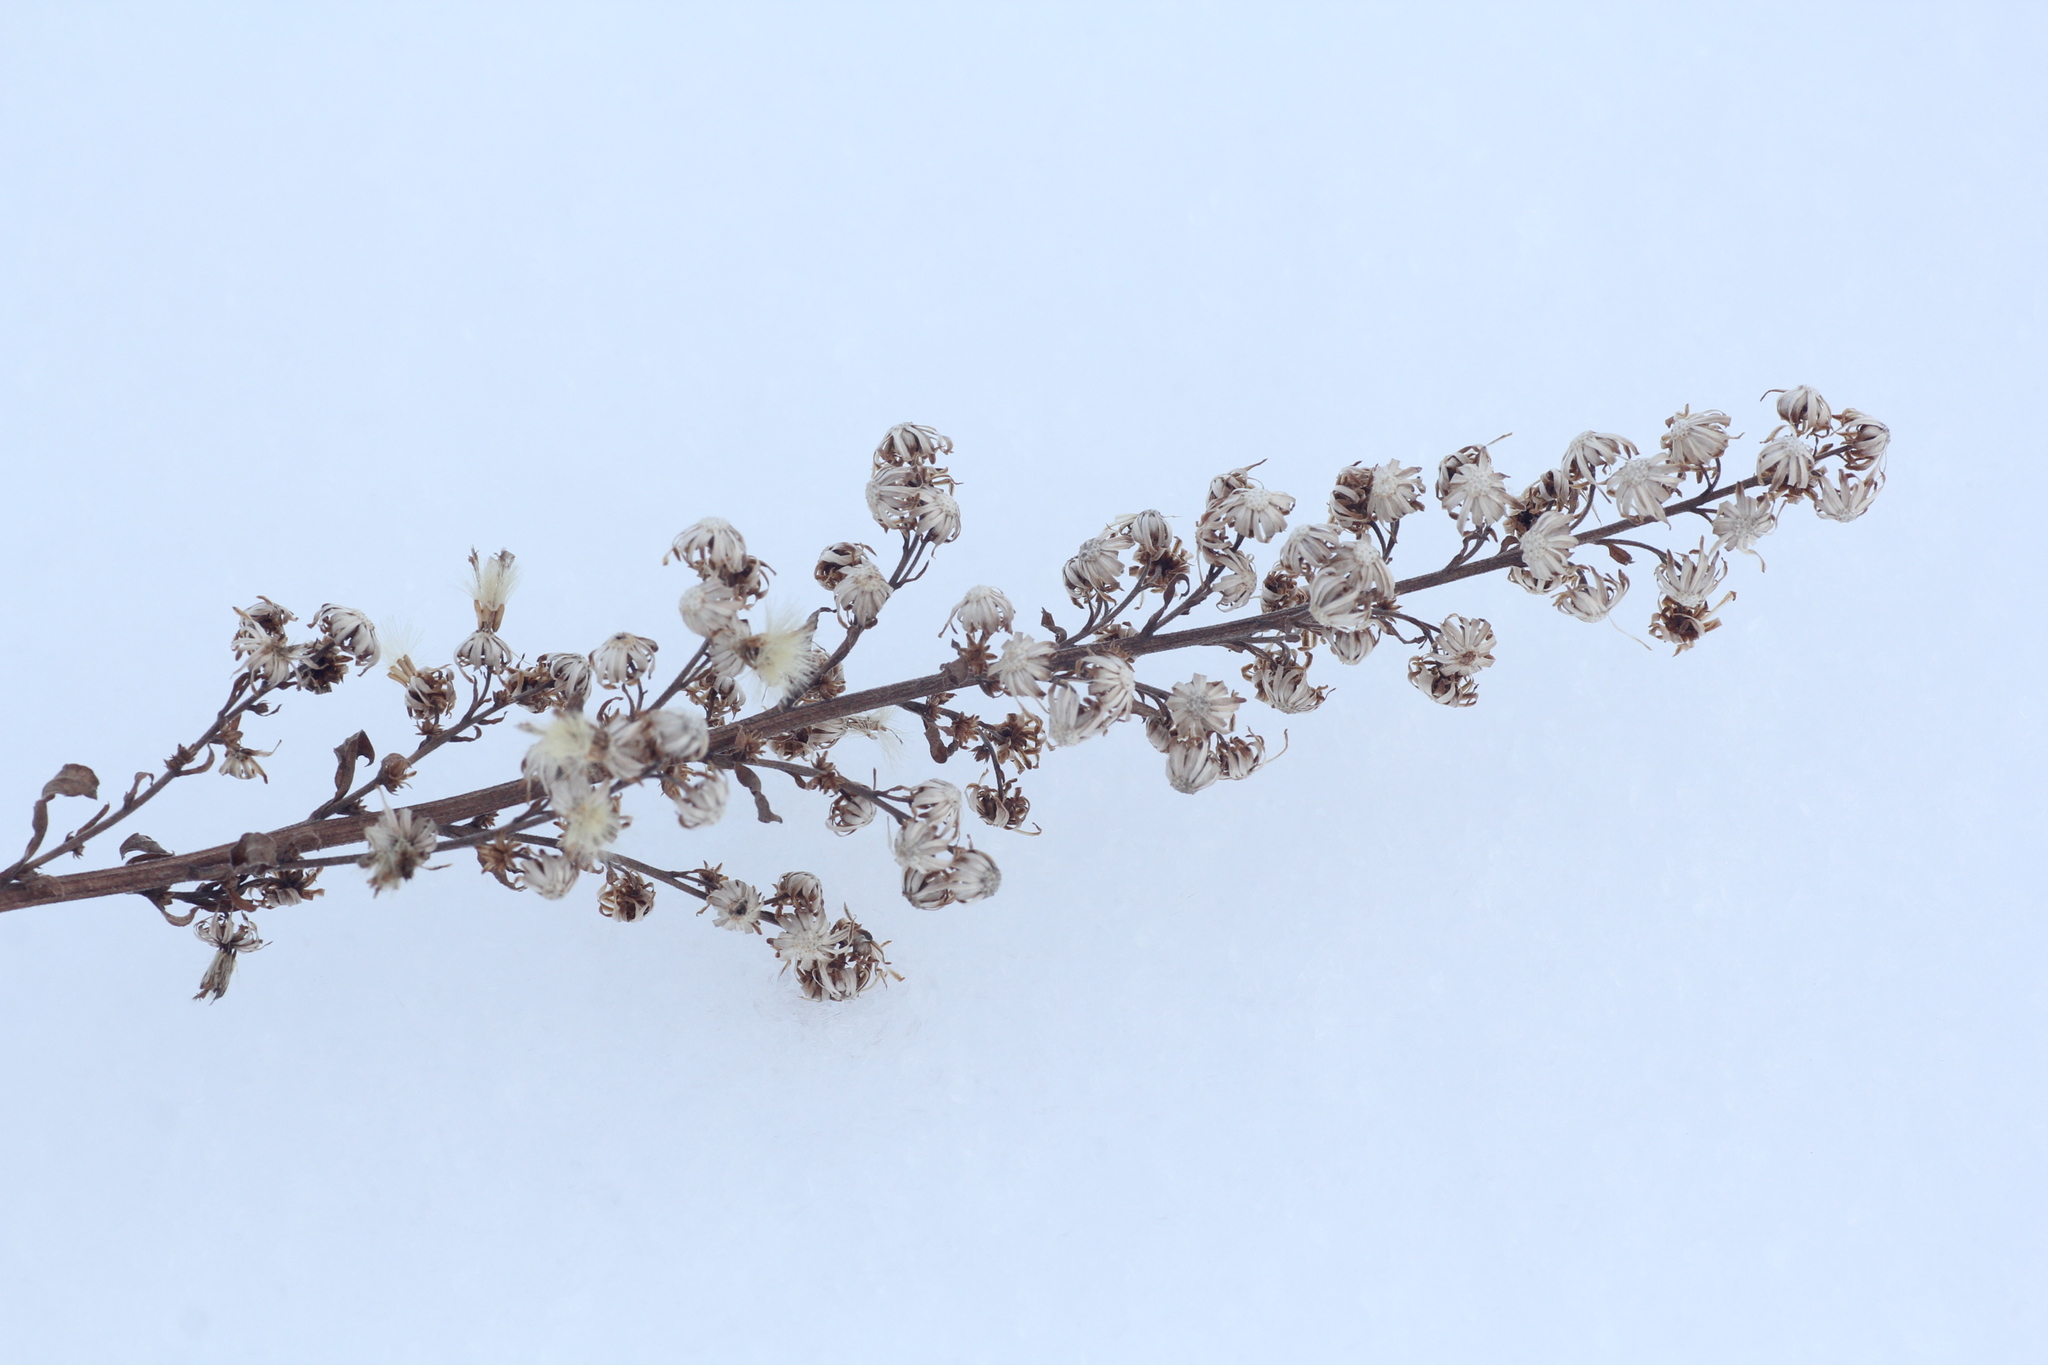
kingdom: Plantae
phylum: Tracheophyta
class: Magnoliopsida
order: Asterales
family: Asteraceae
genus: Solidago
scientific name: Solidago virgaurea
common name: Goldenrod
